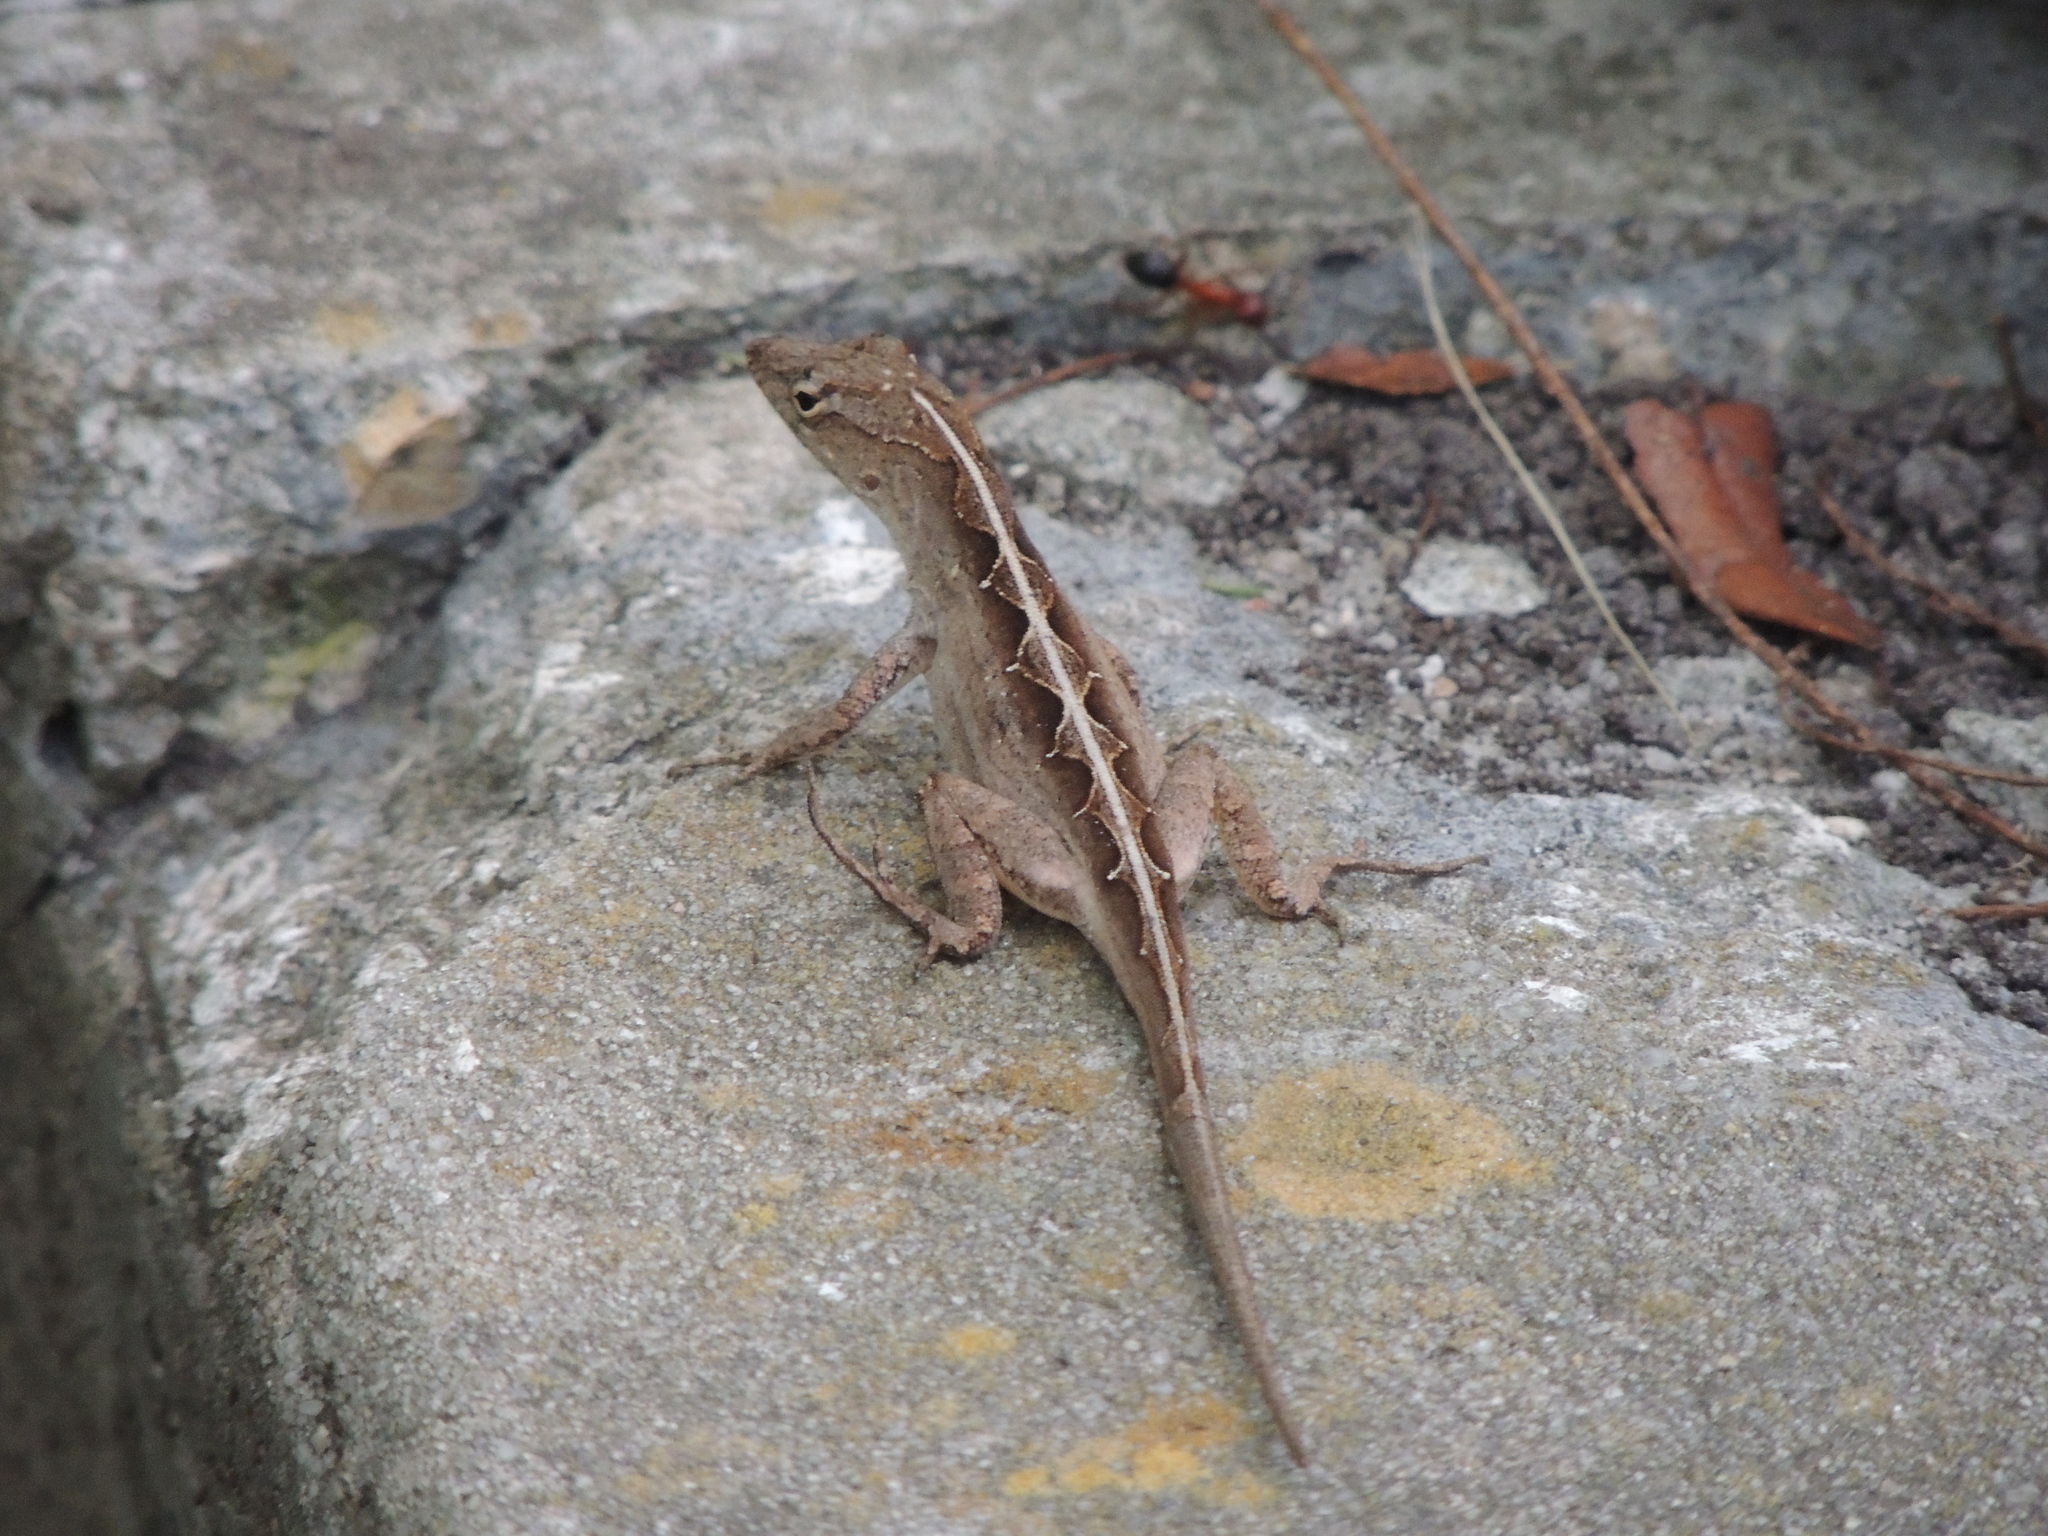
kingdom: Animalia
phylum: Chordata
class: Squamata
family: Dactyloidae
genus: Anolis
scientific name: Anolis sagrei
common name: Brown anole
